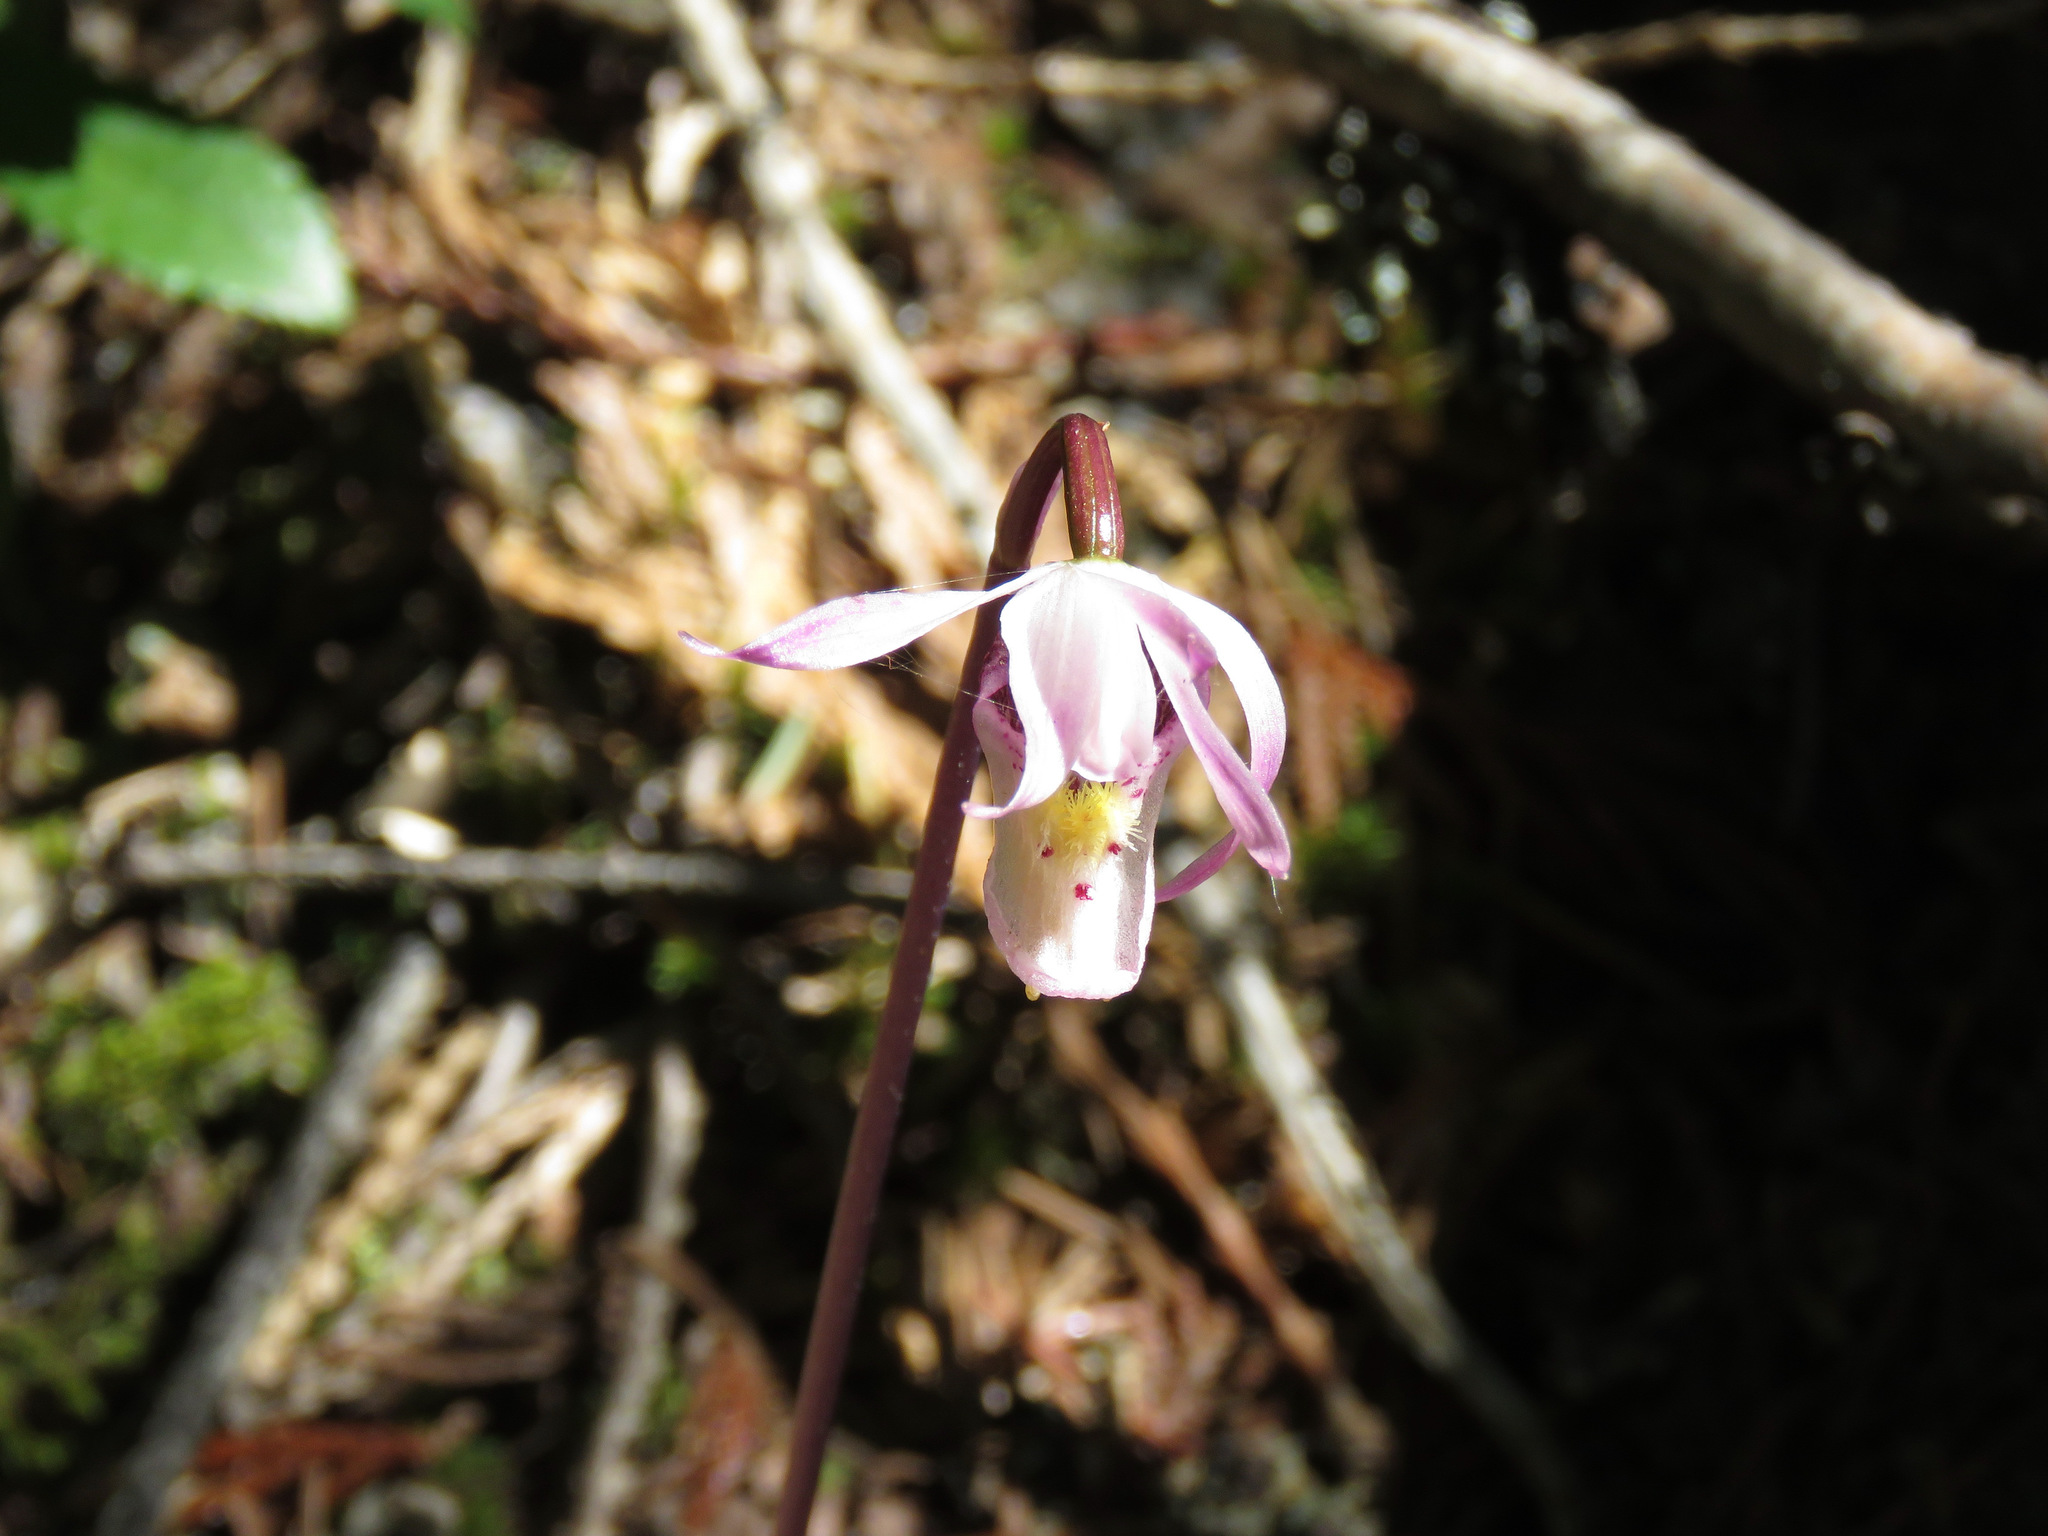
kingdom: Plantae
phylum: Tracheophyta
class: Liliopsida
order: Asparagales
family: Orchidaceae
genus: Calypso
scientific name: Calypso bulbosa
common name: Calypso
